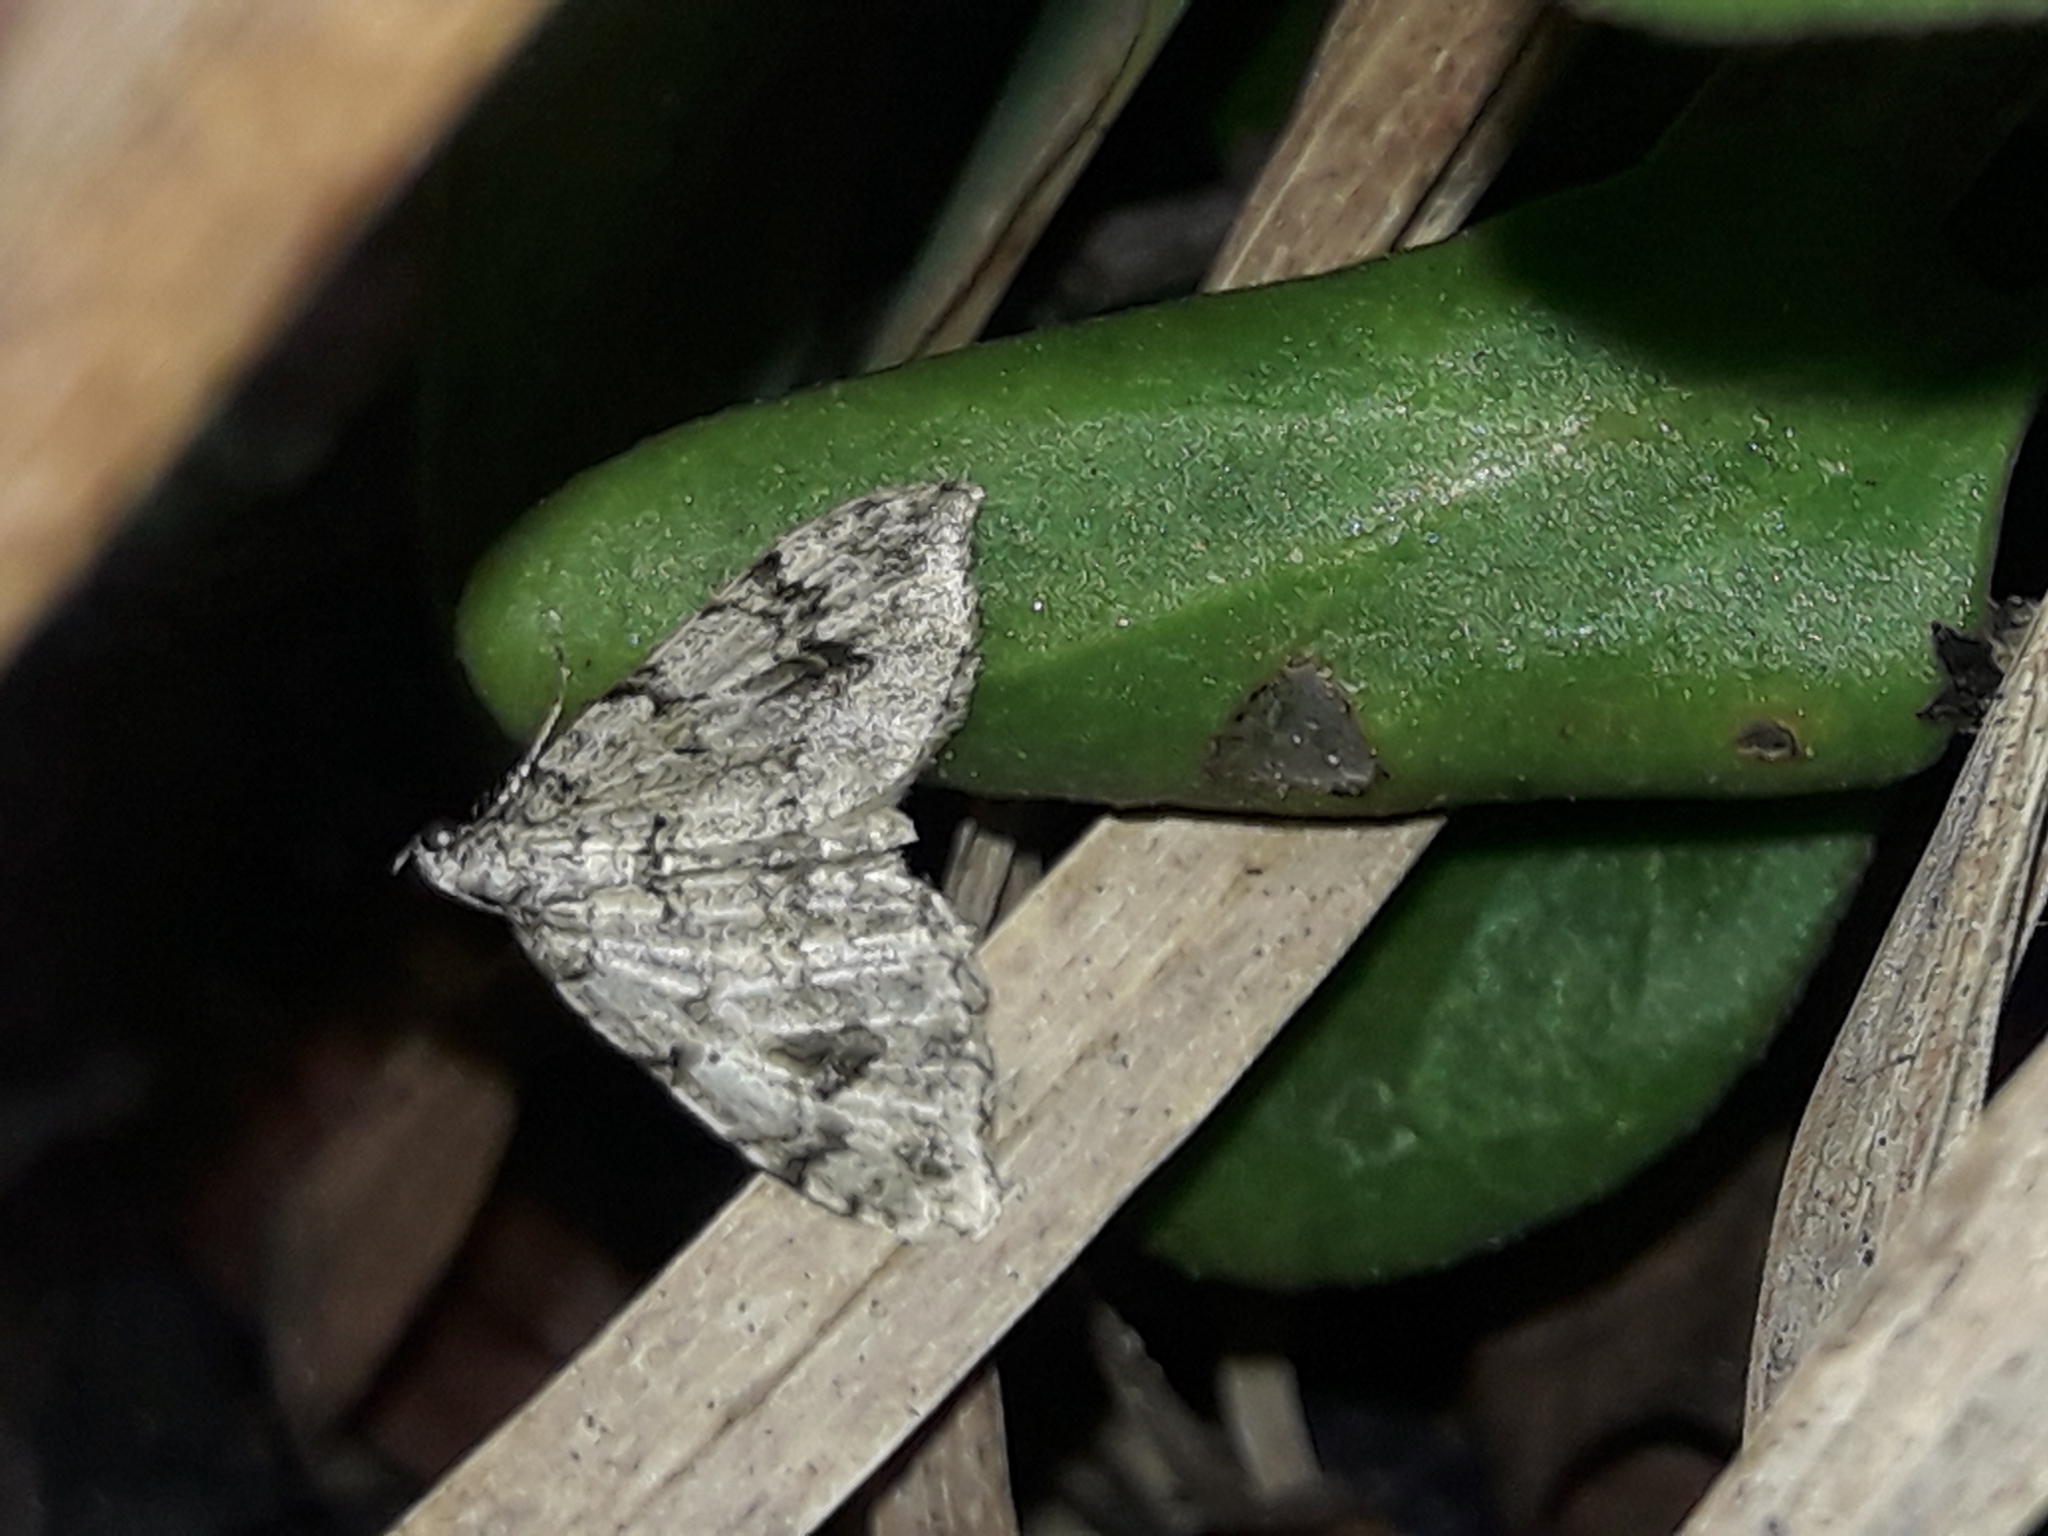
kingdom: Animalia
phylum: Arthropoda
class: Insecta
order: Lepidoptera
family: Geometridae
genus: Helastia
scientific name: Helastia cinerearia
